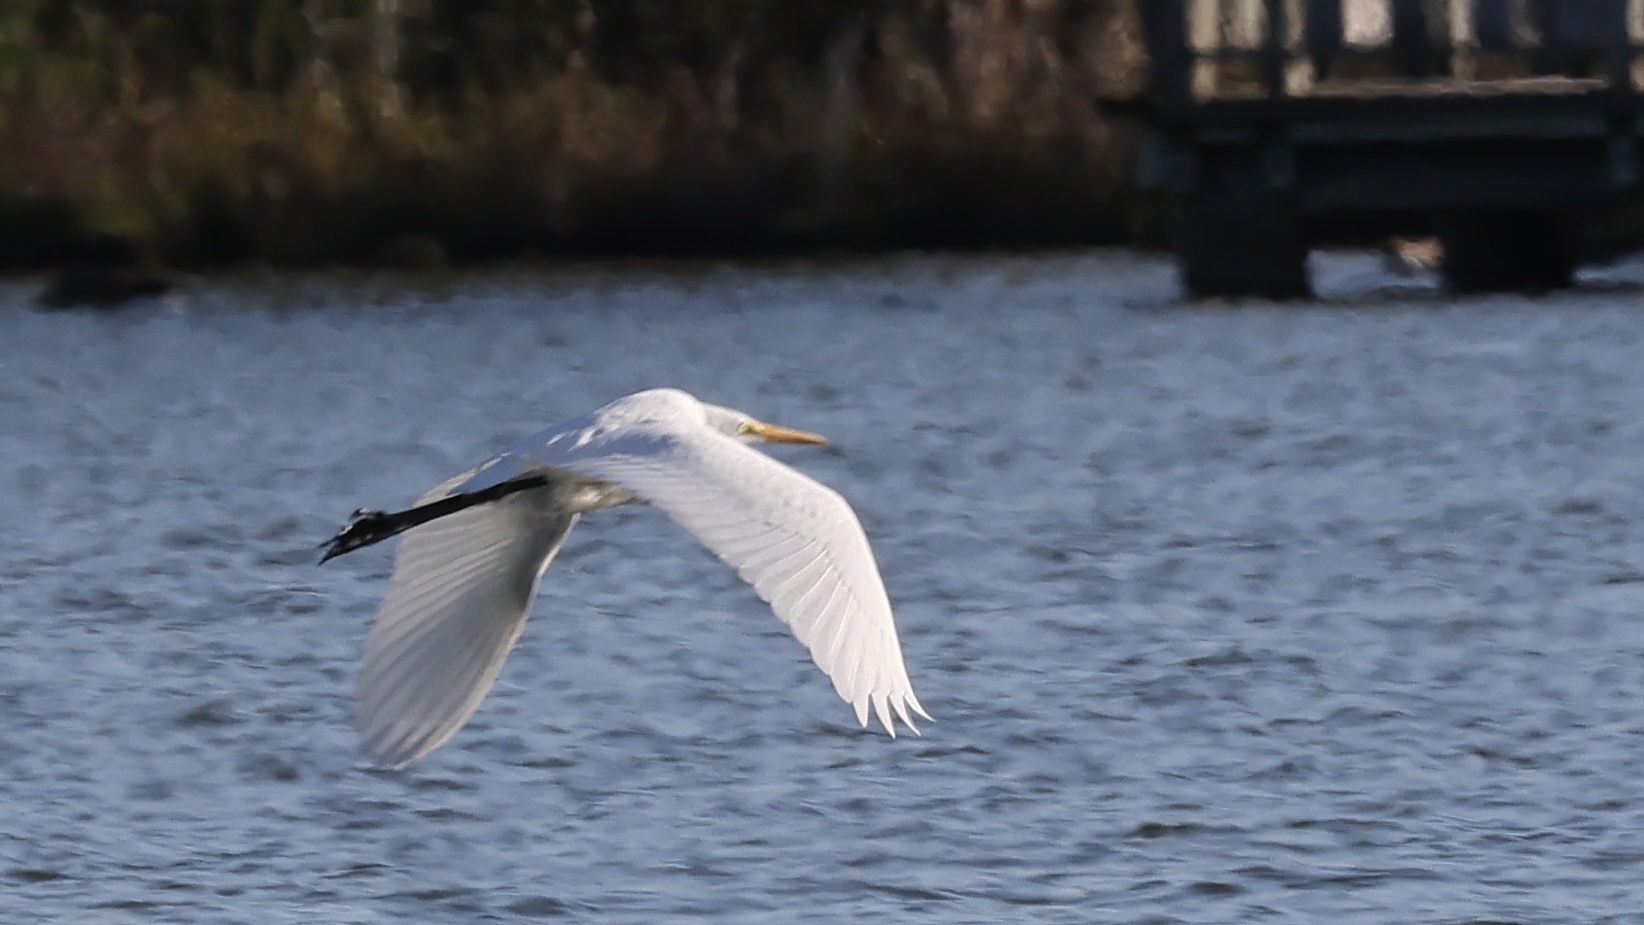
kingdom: Animalia
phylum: Chordata
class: Aves
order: Pelecaniformes
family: Ardeidae
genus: Ardea
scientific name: Ardea alba
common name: Great egret
